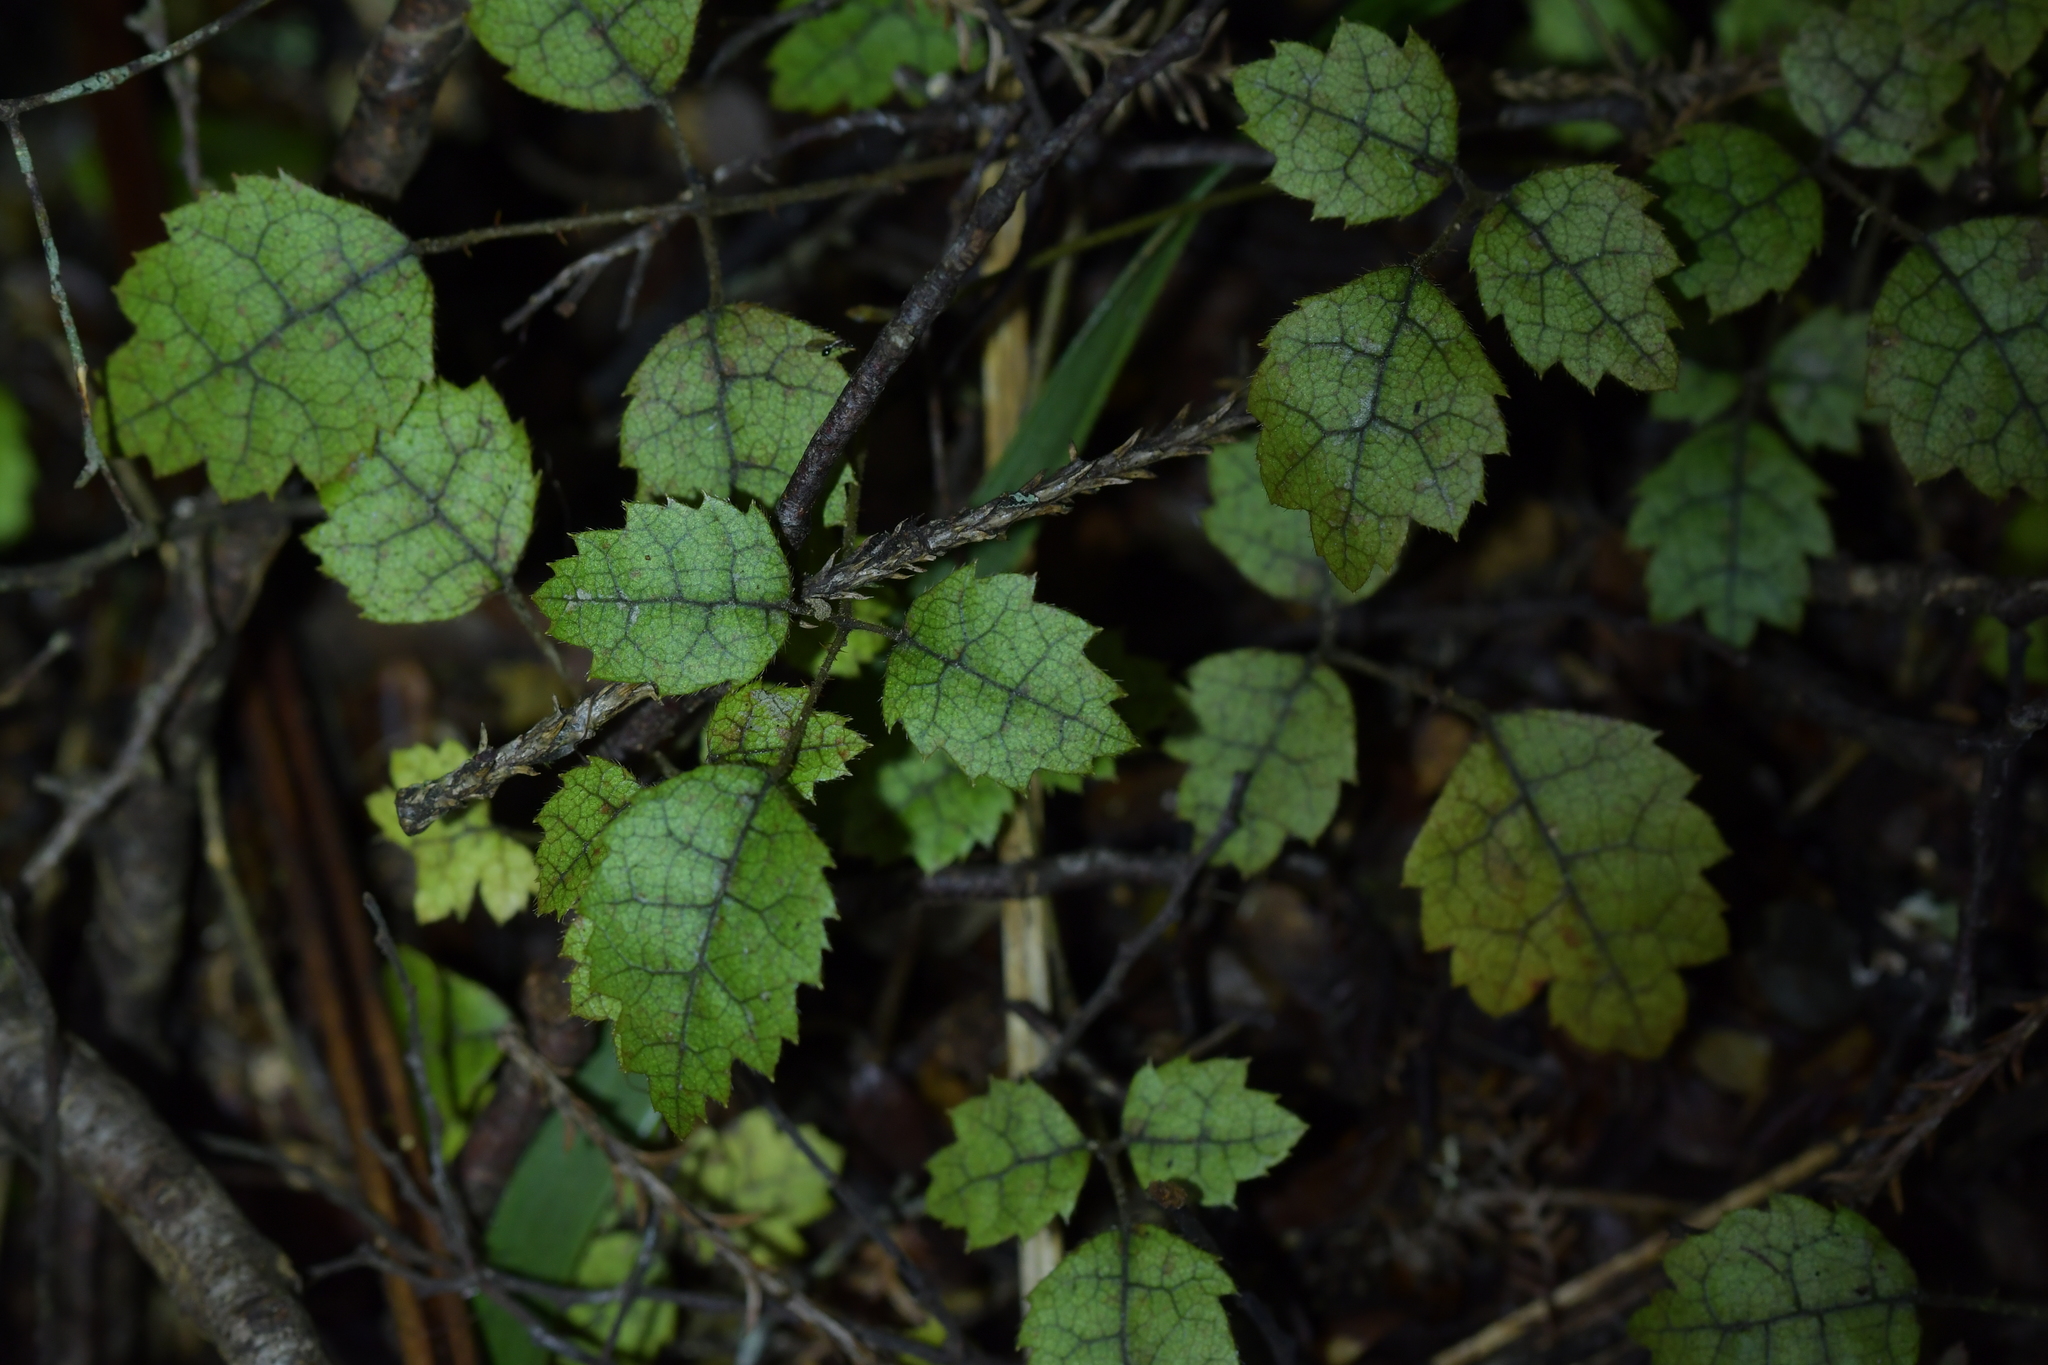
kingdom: Plantae
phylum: Tracheophyta
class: Magnoliopsida
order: Rosales
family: Rosaceae
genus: Rubus
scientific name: Rubus australis
